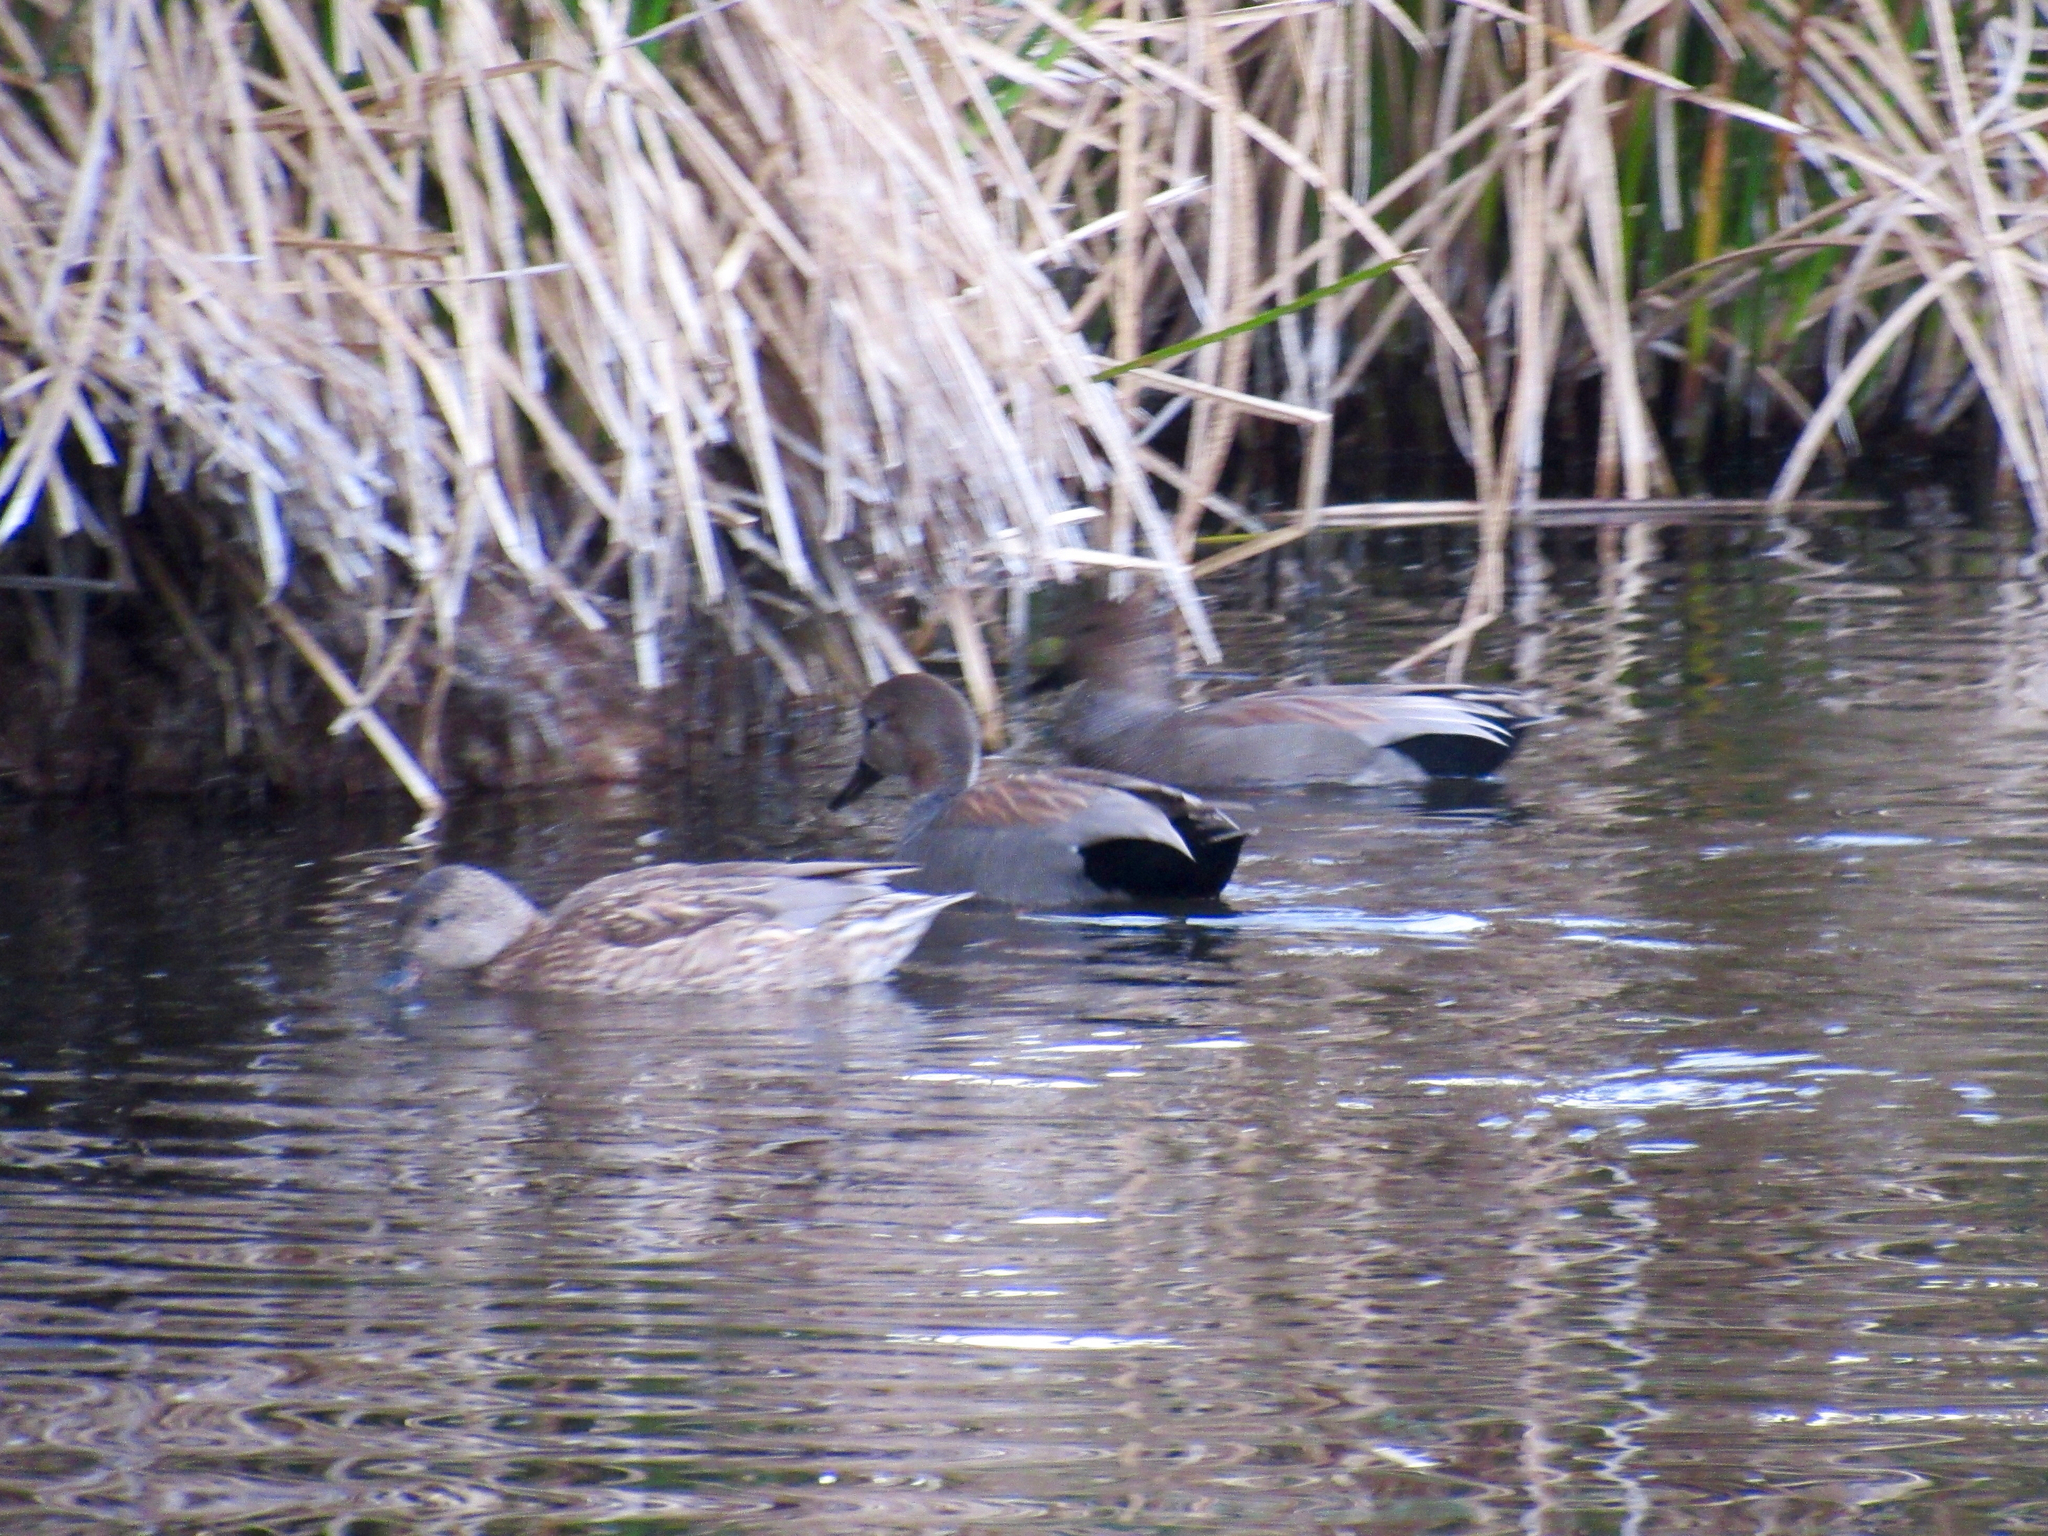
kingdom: Animalia
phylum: Chordata
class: Aves
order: Anseriformes
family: Anatidae
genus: Mareca
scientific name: Mareca strepera
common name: Gadwall
